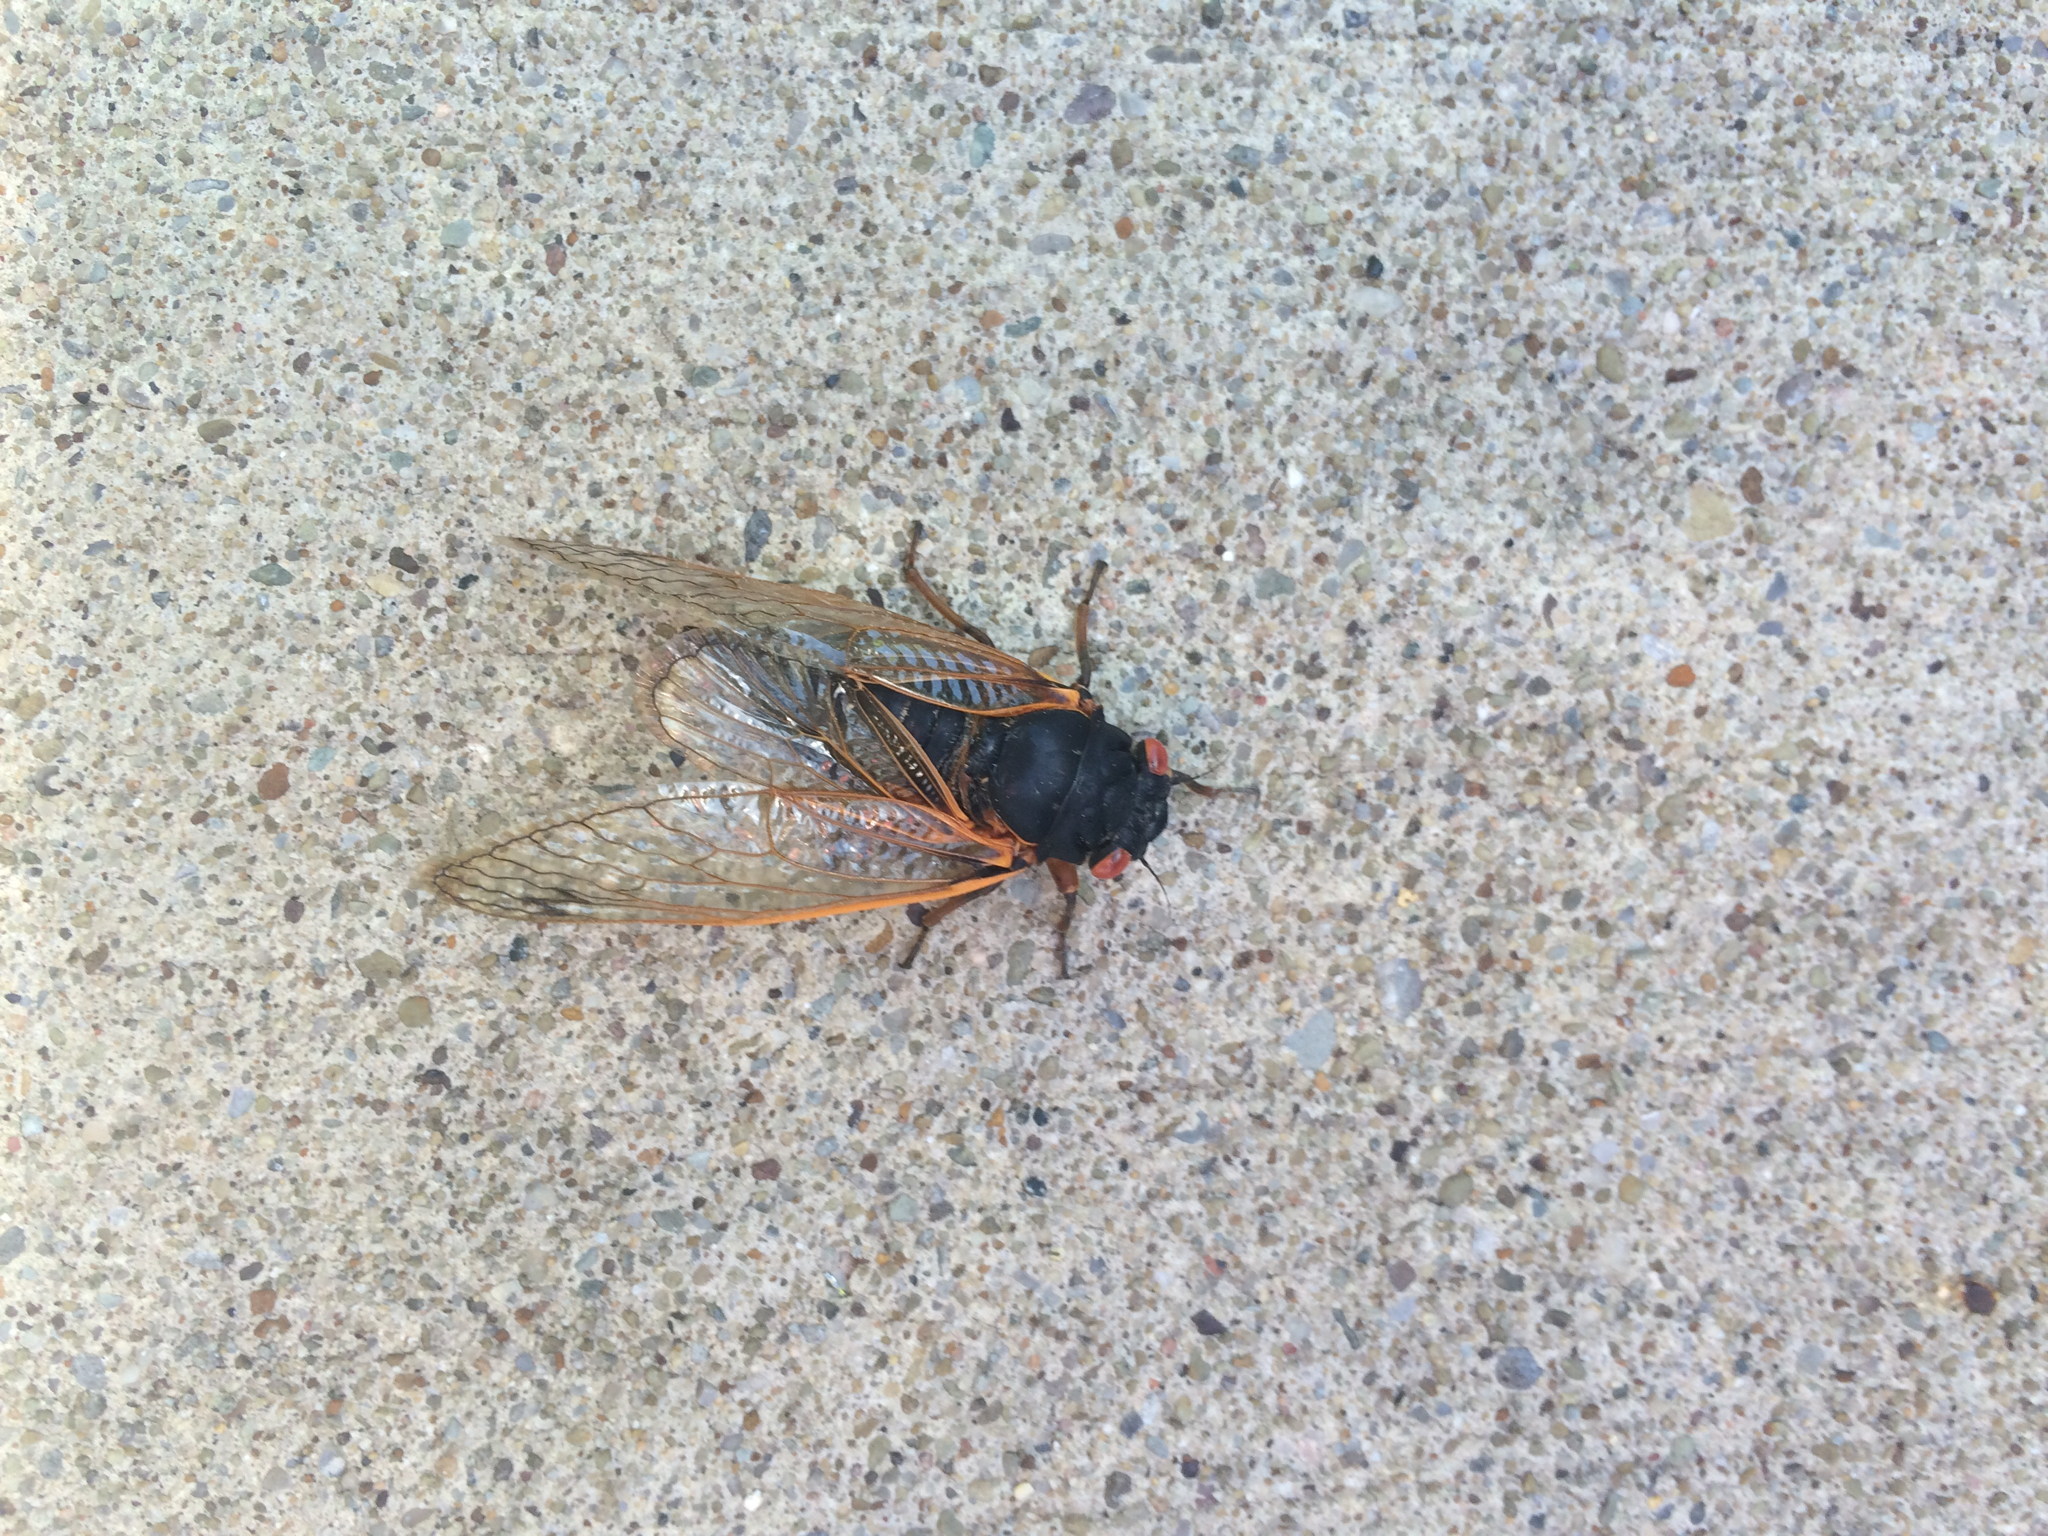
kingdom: Animalia
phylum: Arthropoda
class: Insecta
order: Hemiptera
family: Cicadidae
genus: Magicicada
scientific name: Magicicada
